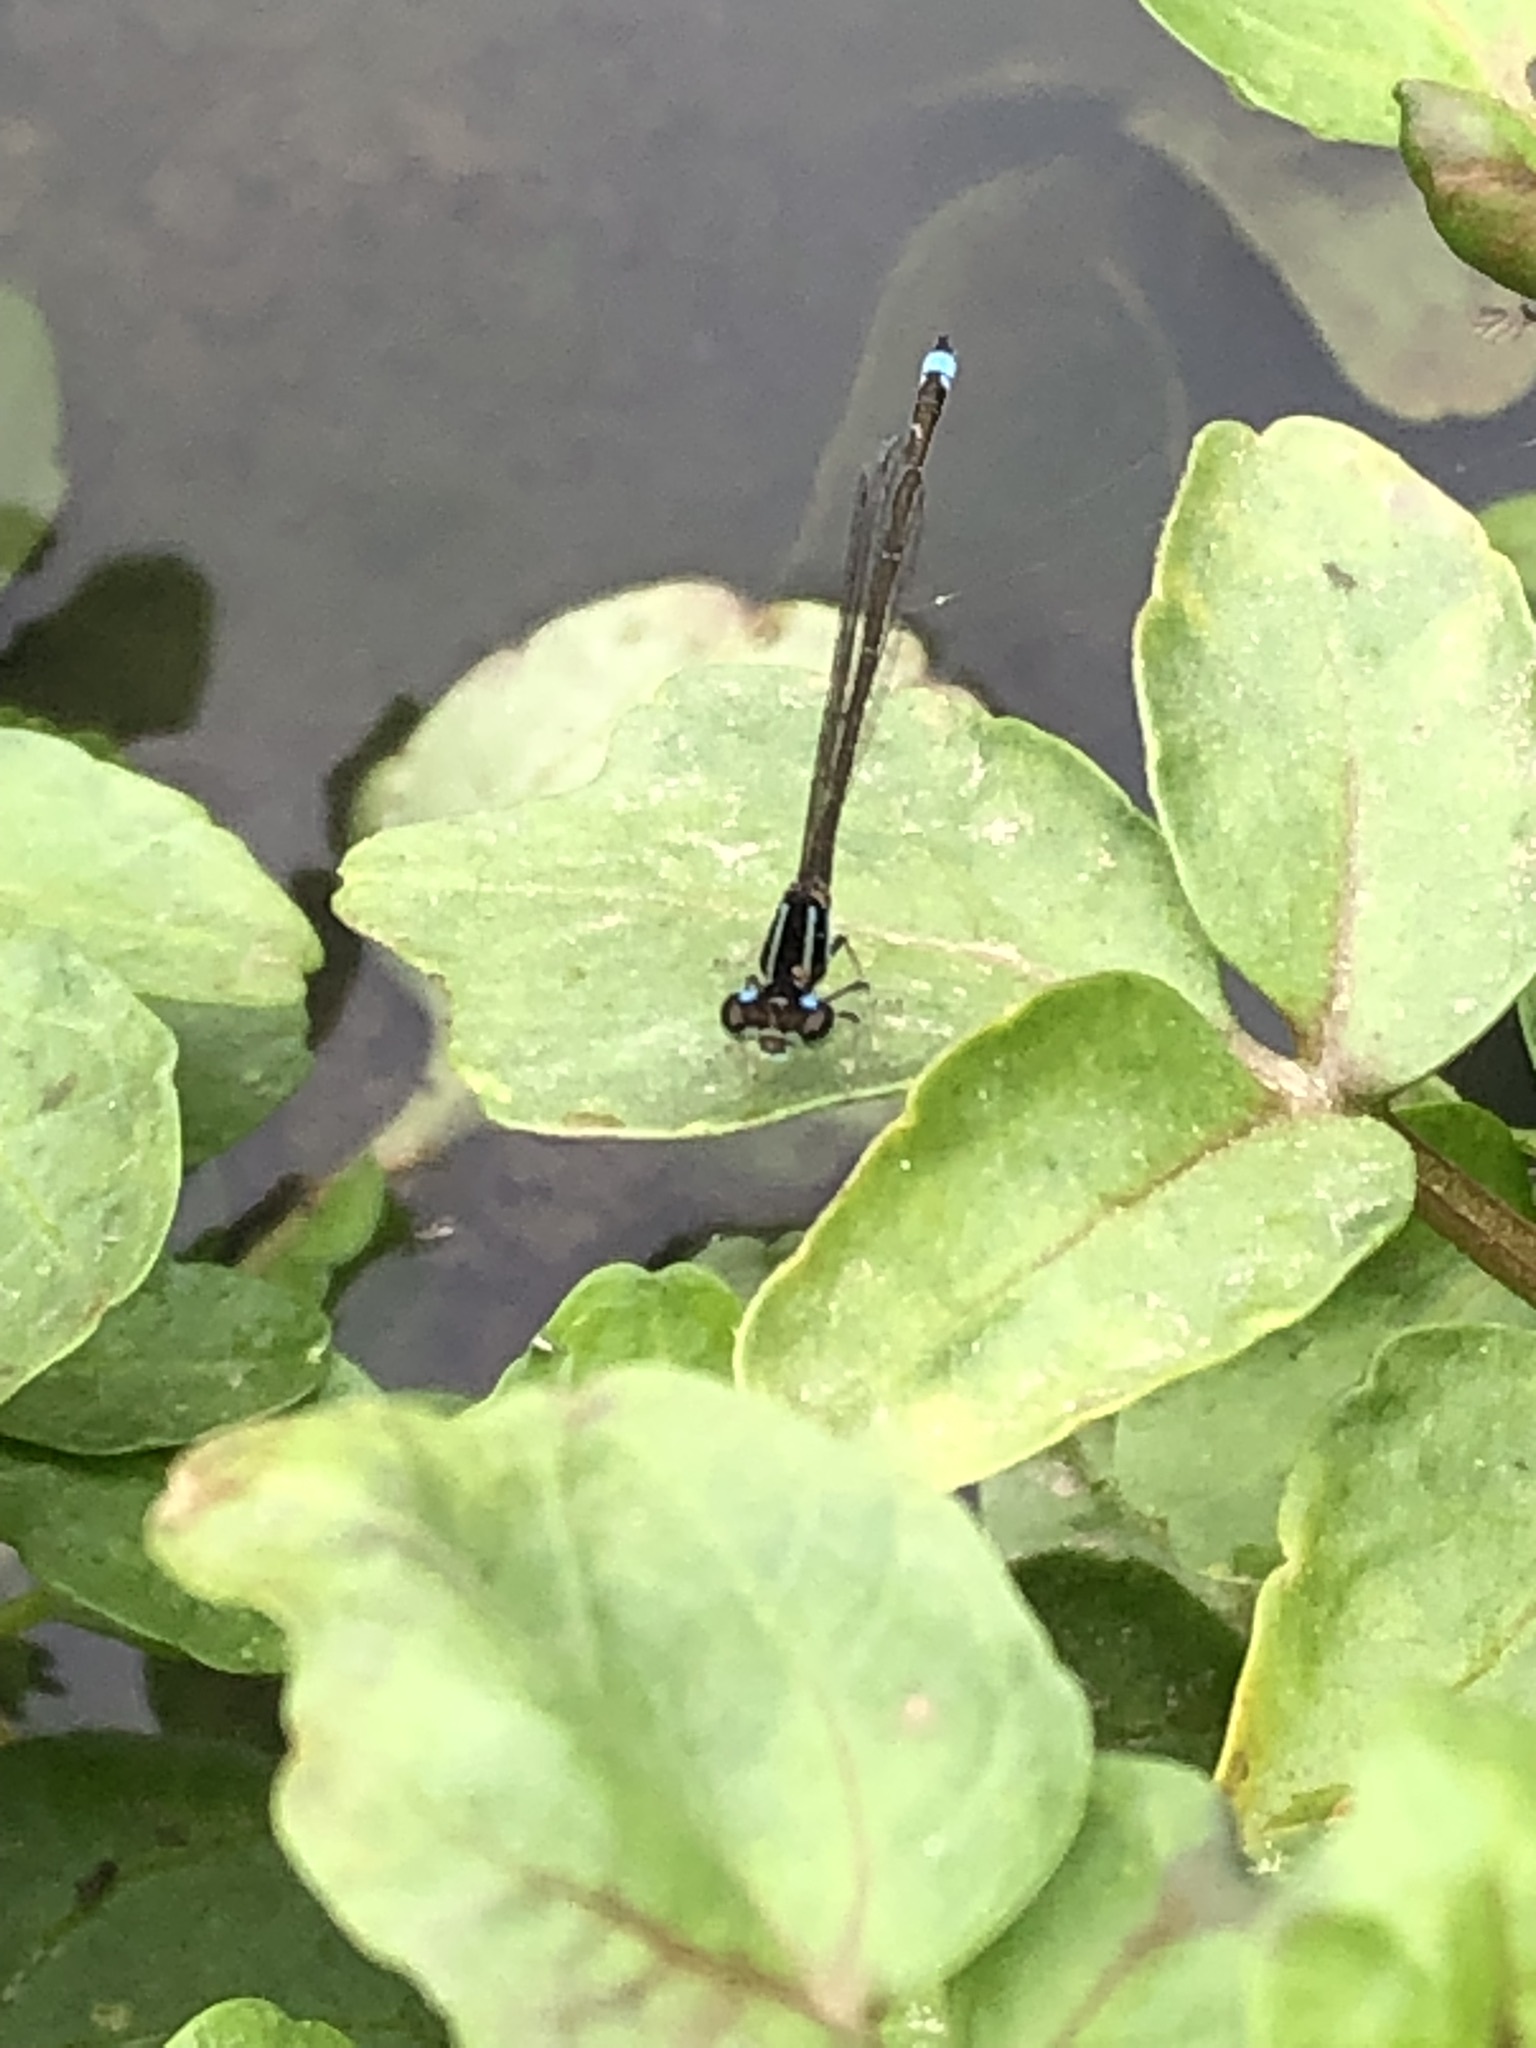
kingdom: Animalia
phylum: Arthropoda
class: Insecta
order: Odonata
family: Coenagrionidae
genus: Ischnura
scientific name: Ischnura capreolus
